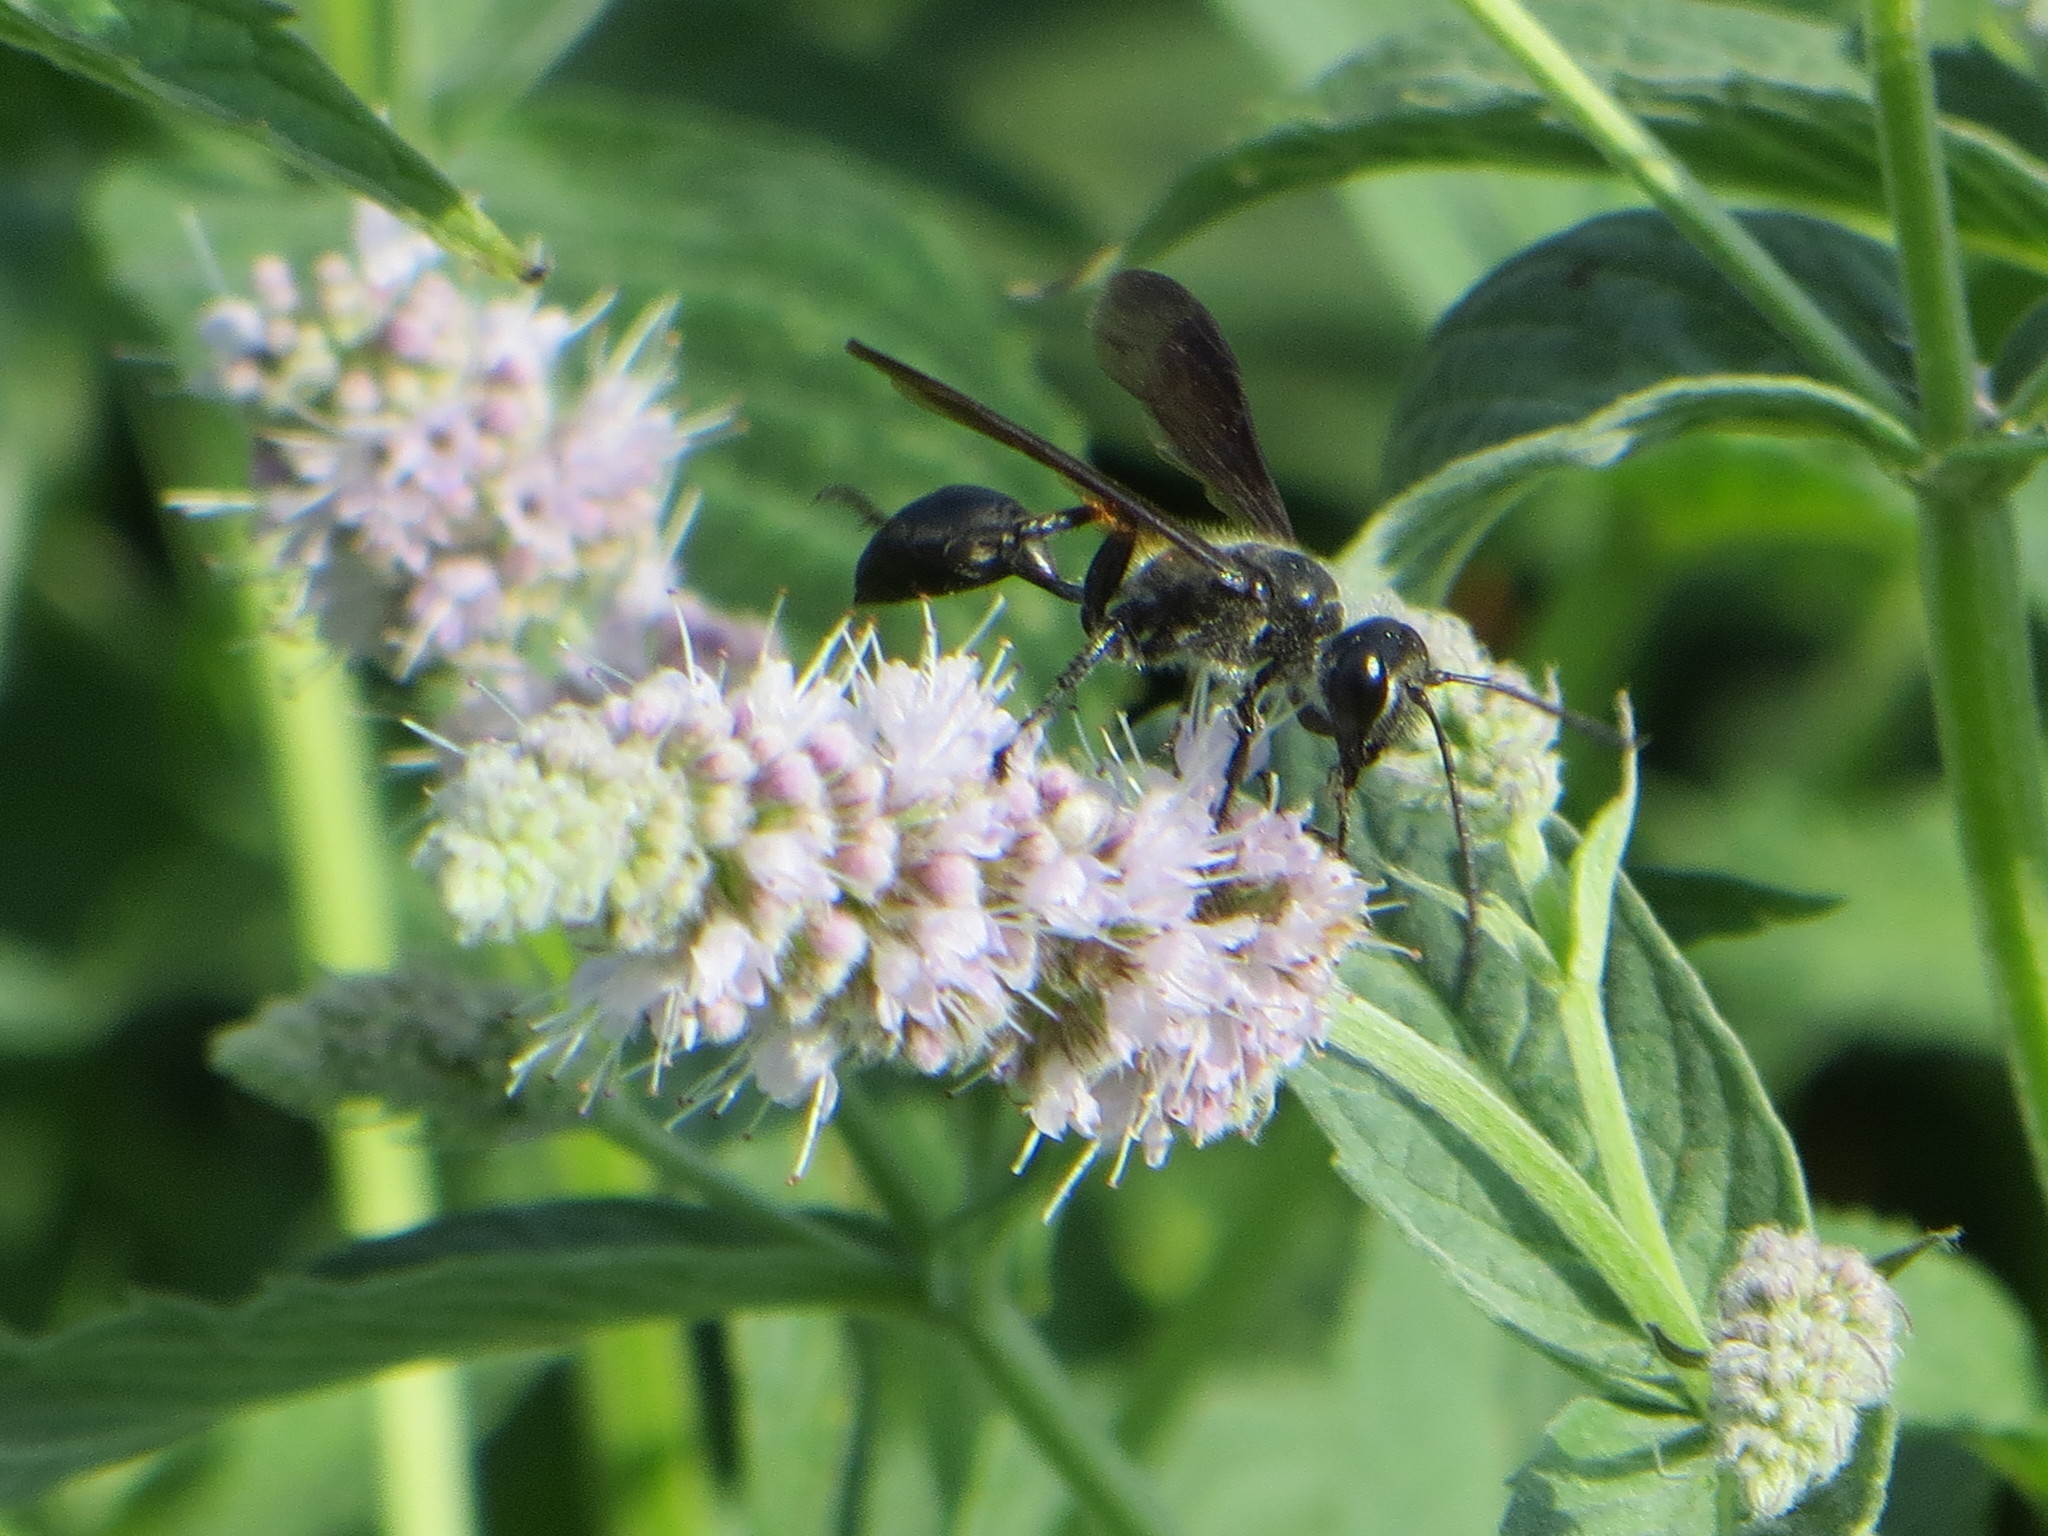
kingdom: Animalia
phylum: Arthropoda
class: Insecta
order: Hymenoptera
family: Sphecidae
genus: Isodontia
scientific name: Isodontia mexicana
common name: Mud dauber
